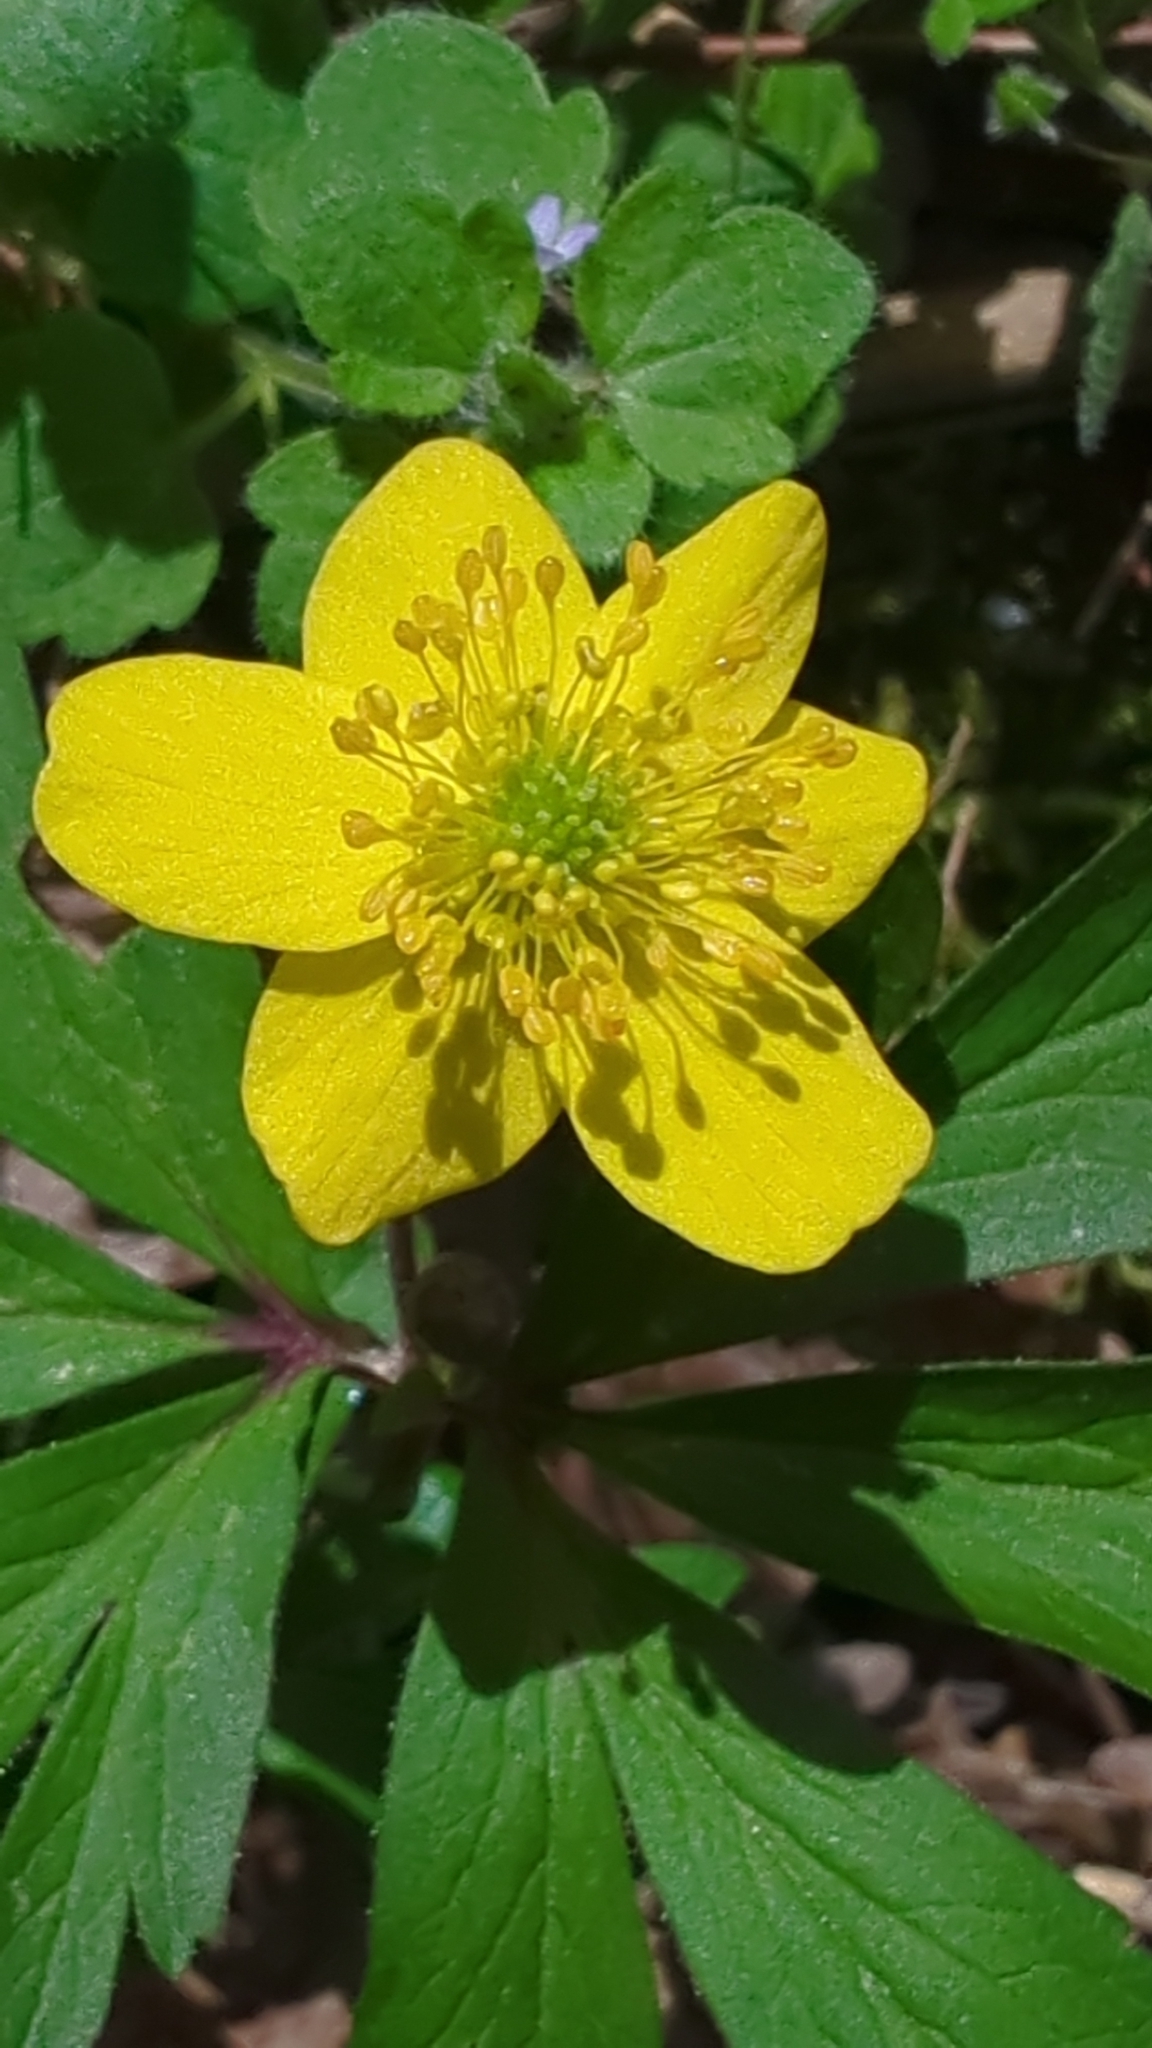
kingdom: Plantae
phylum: Tracheophyta
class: Magnoliopsida
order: Ranunculales
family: Ranunculaceae
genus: Anemone
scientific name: Anemone ranunculoides
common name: Yellow anemone
